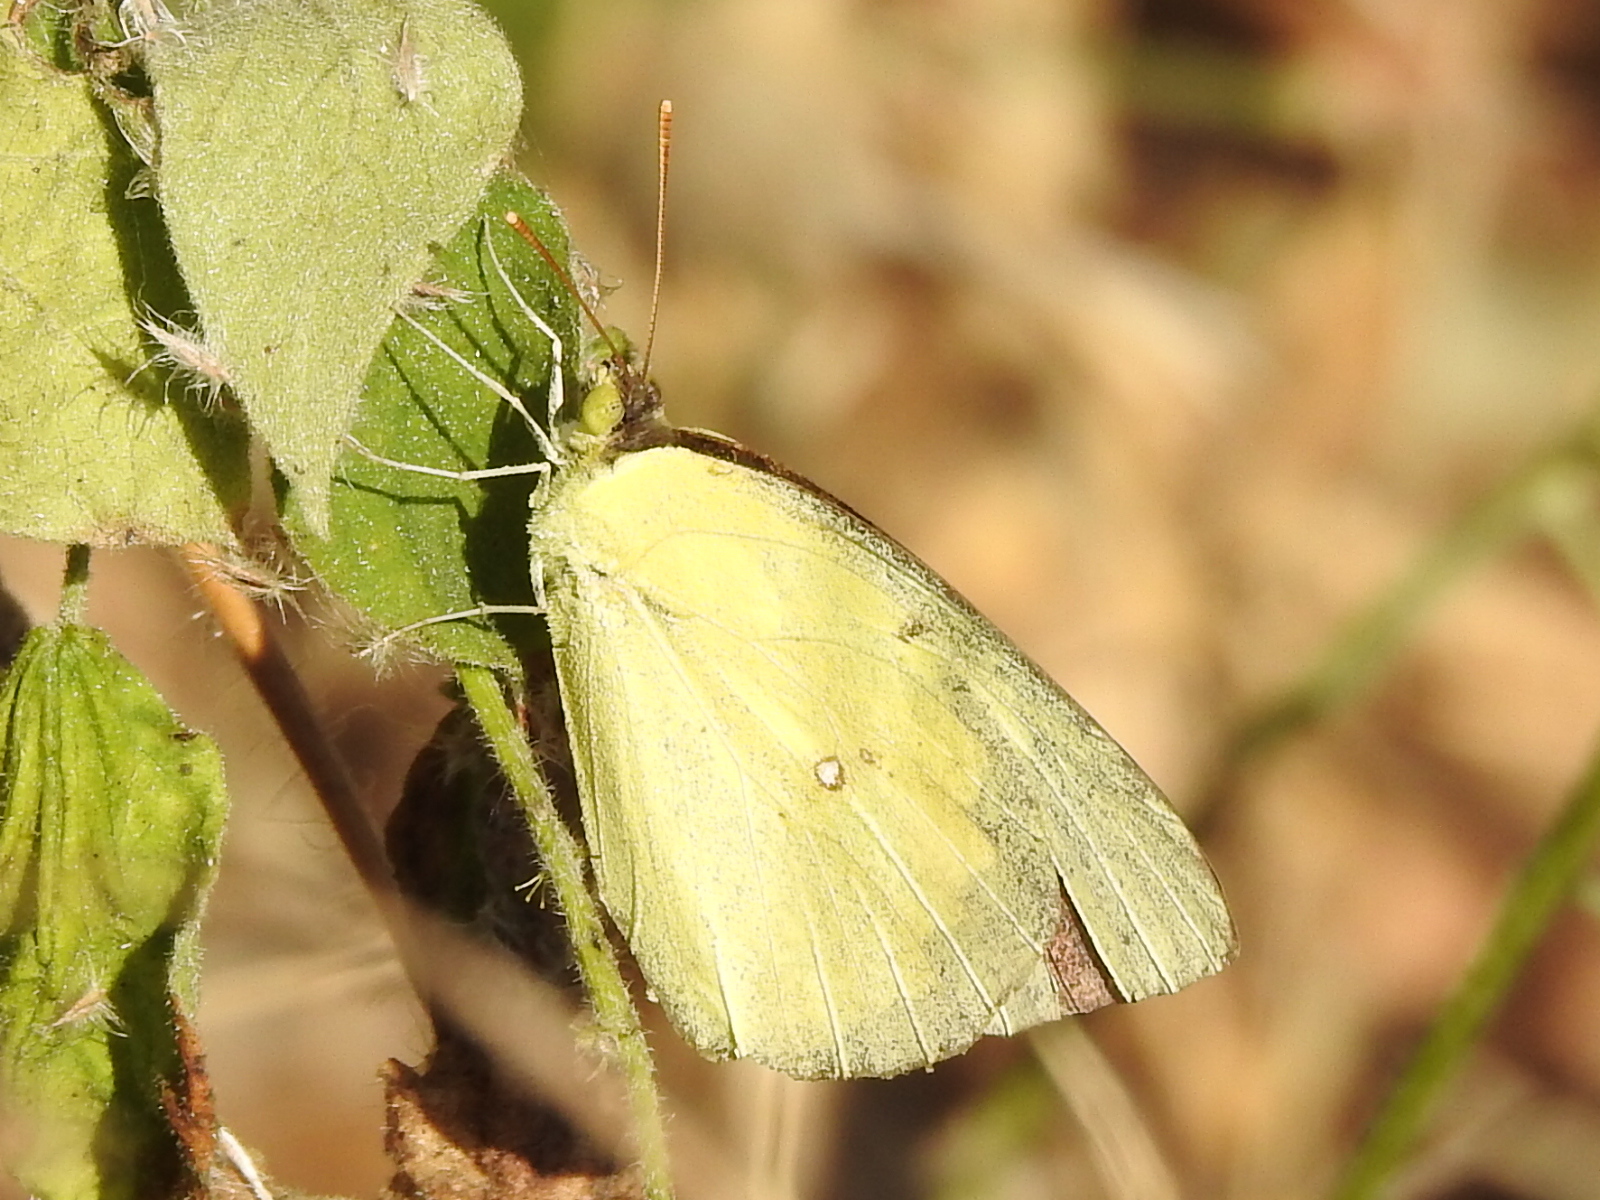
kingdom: Animalia
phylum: Arthropoda
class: Insecta
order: Lepidoptera
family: Pieridae
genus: Colias
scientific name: Colias eurytheme
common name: Alfalfa butterfly
